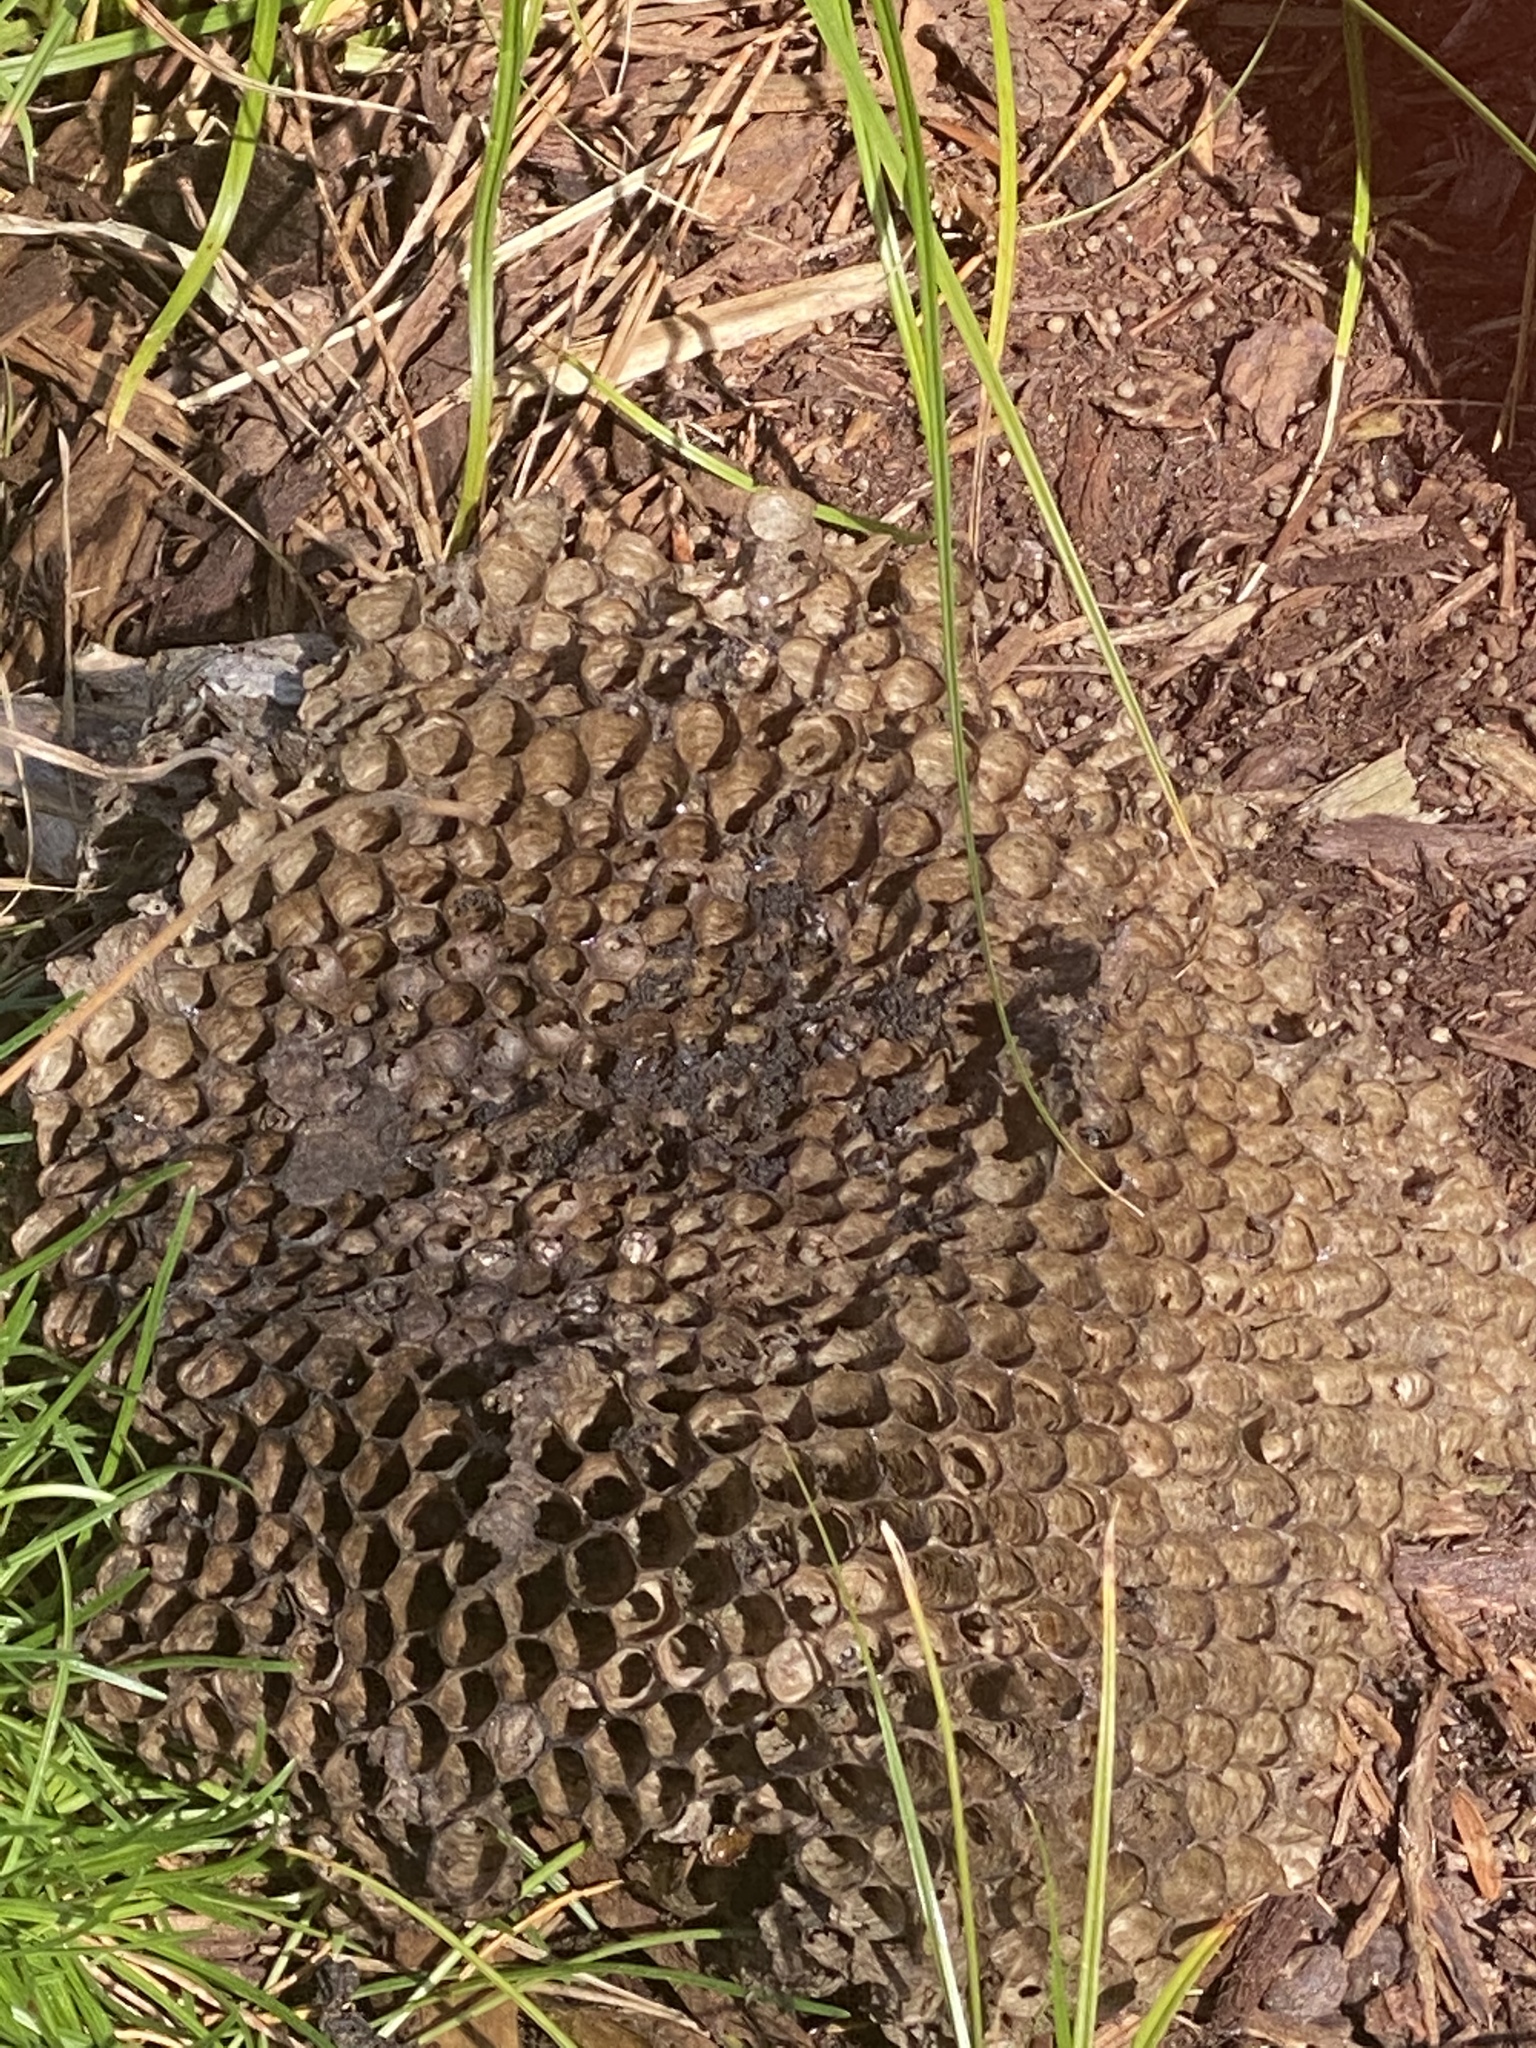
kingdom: Animalia
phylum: Arthropoda
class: Insecta
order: Hymenoptera
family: Vespidae
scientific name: Vespidae
